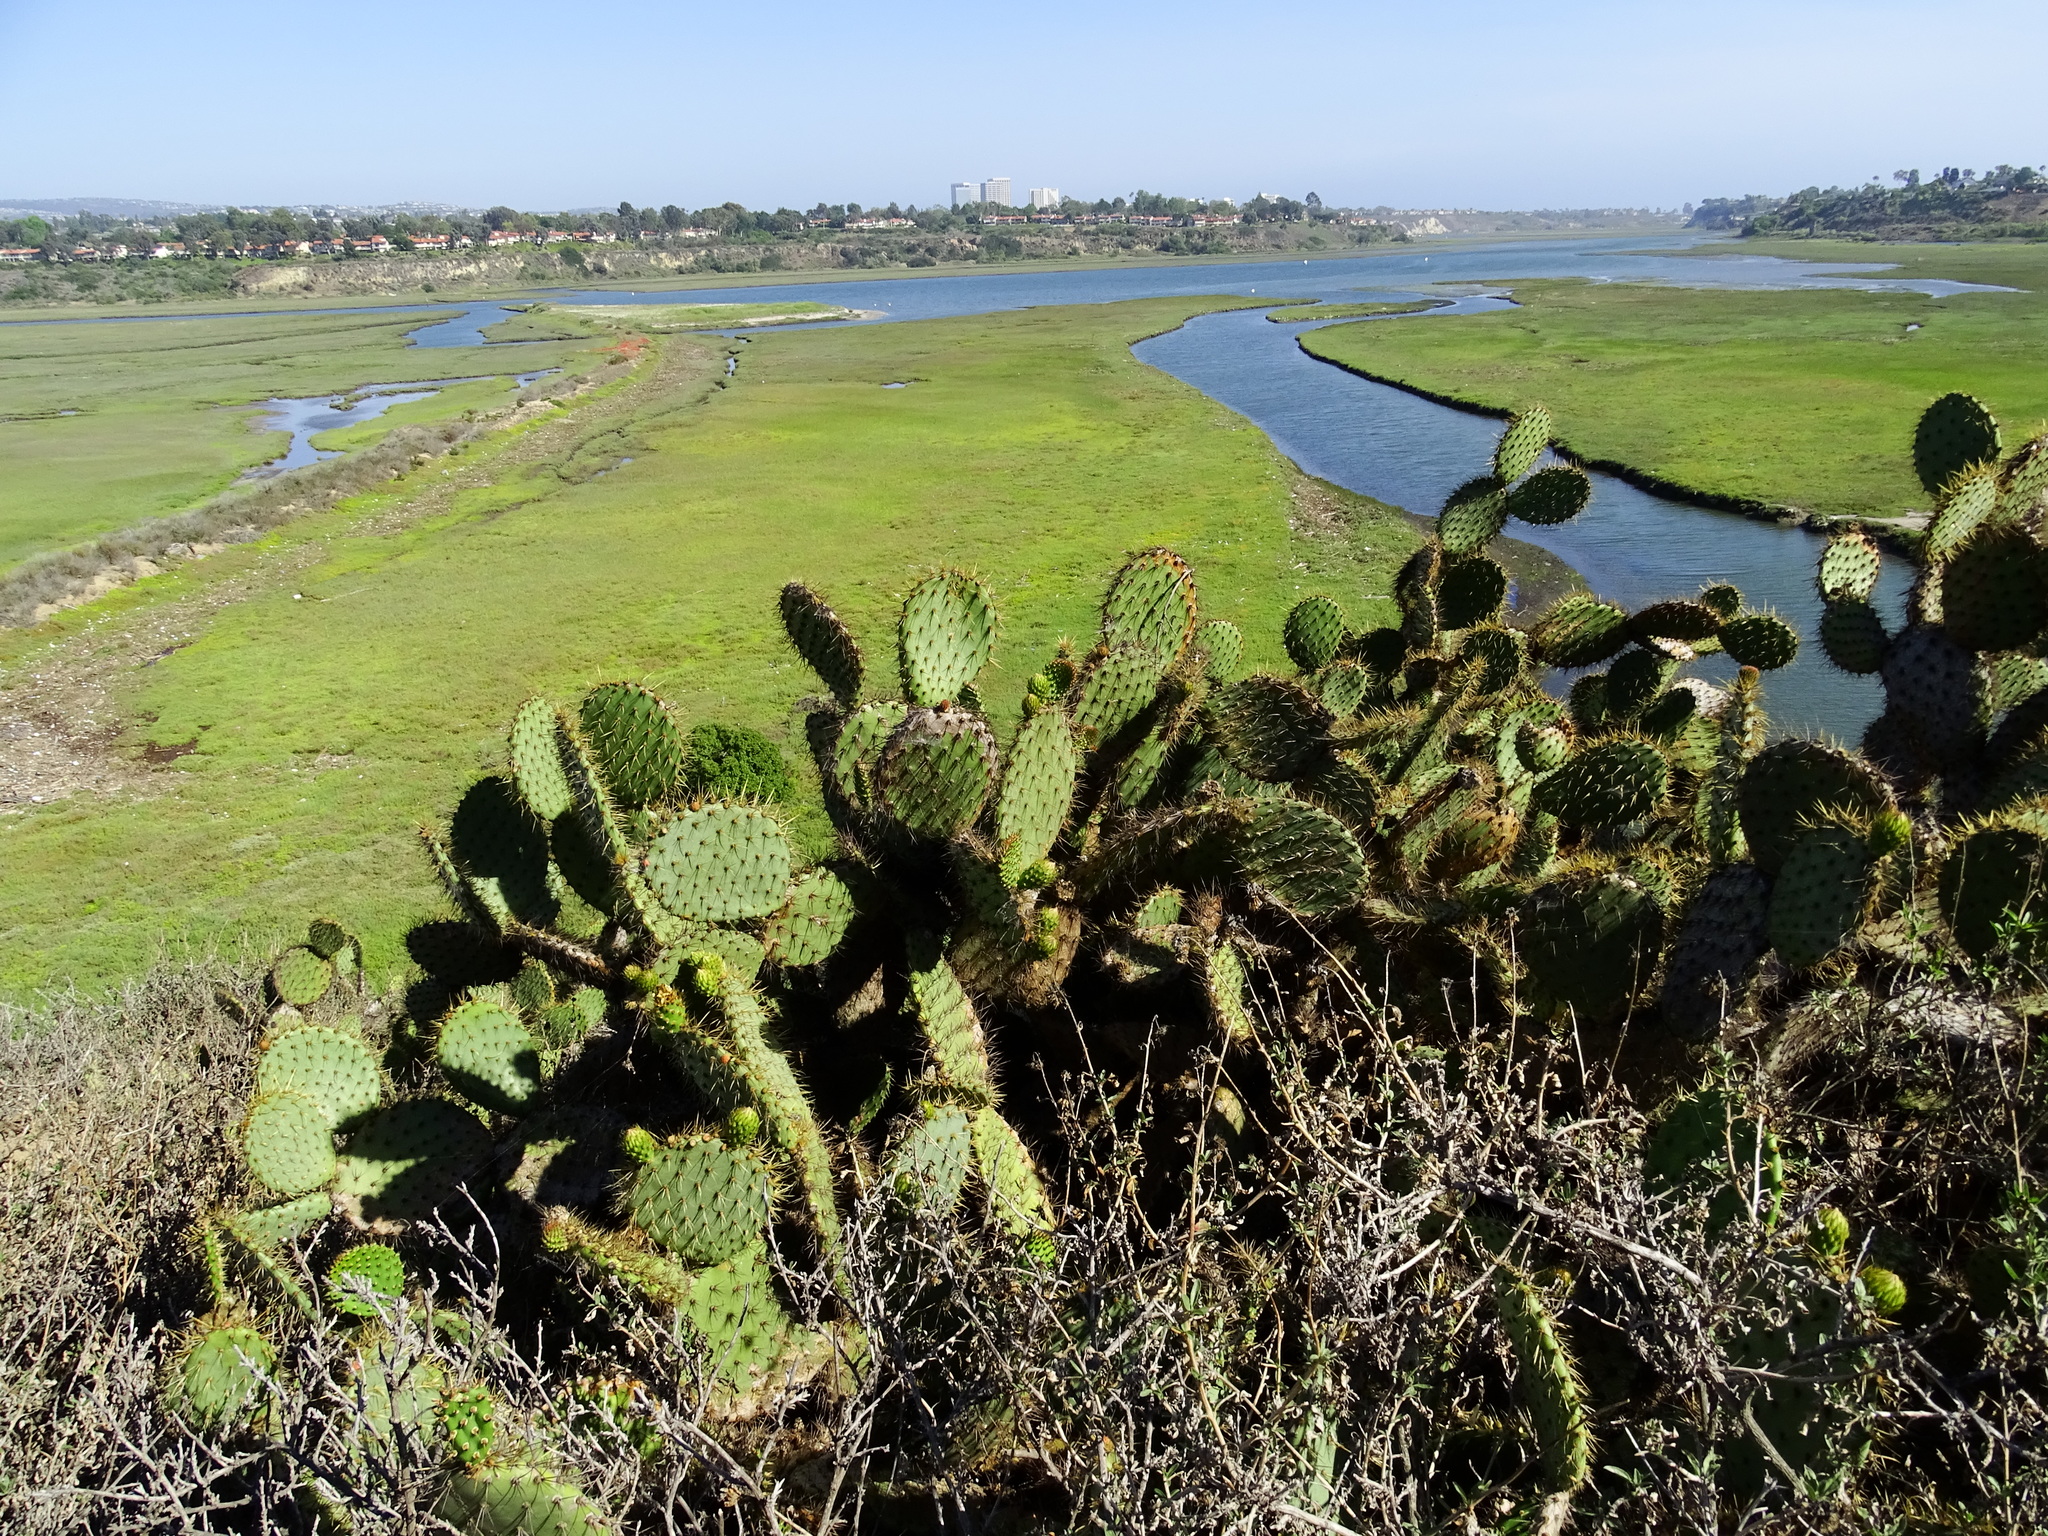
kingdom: Plantae
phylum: Tracheophyta
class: Magnoliopsida
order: Caryophyllales
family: Cactaceae
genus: Opuntia
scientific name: Opuntia oricola
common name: Chaparral prickly-pear
